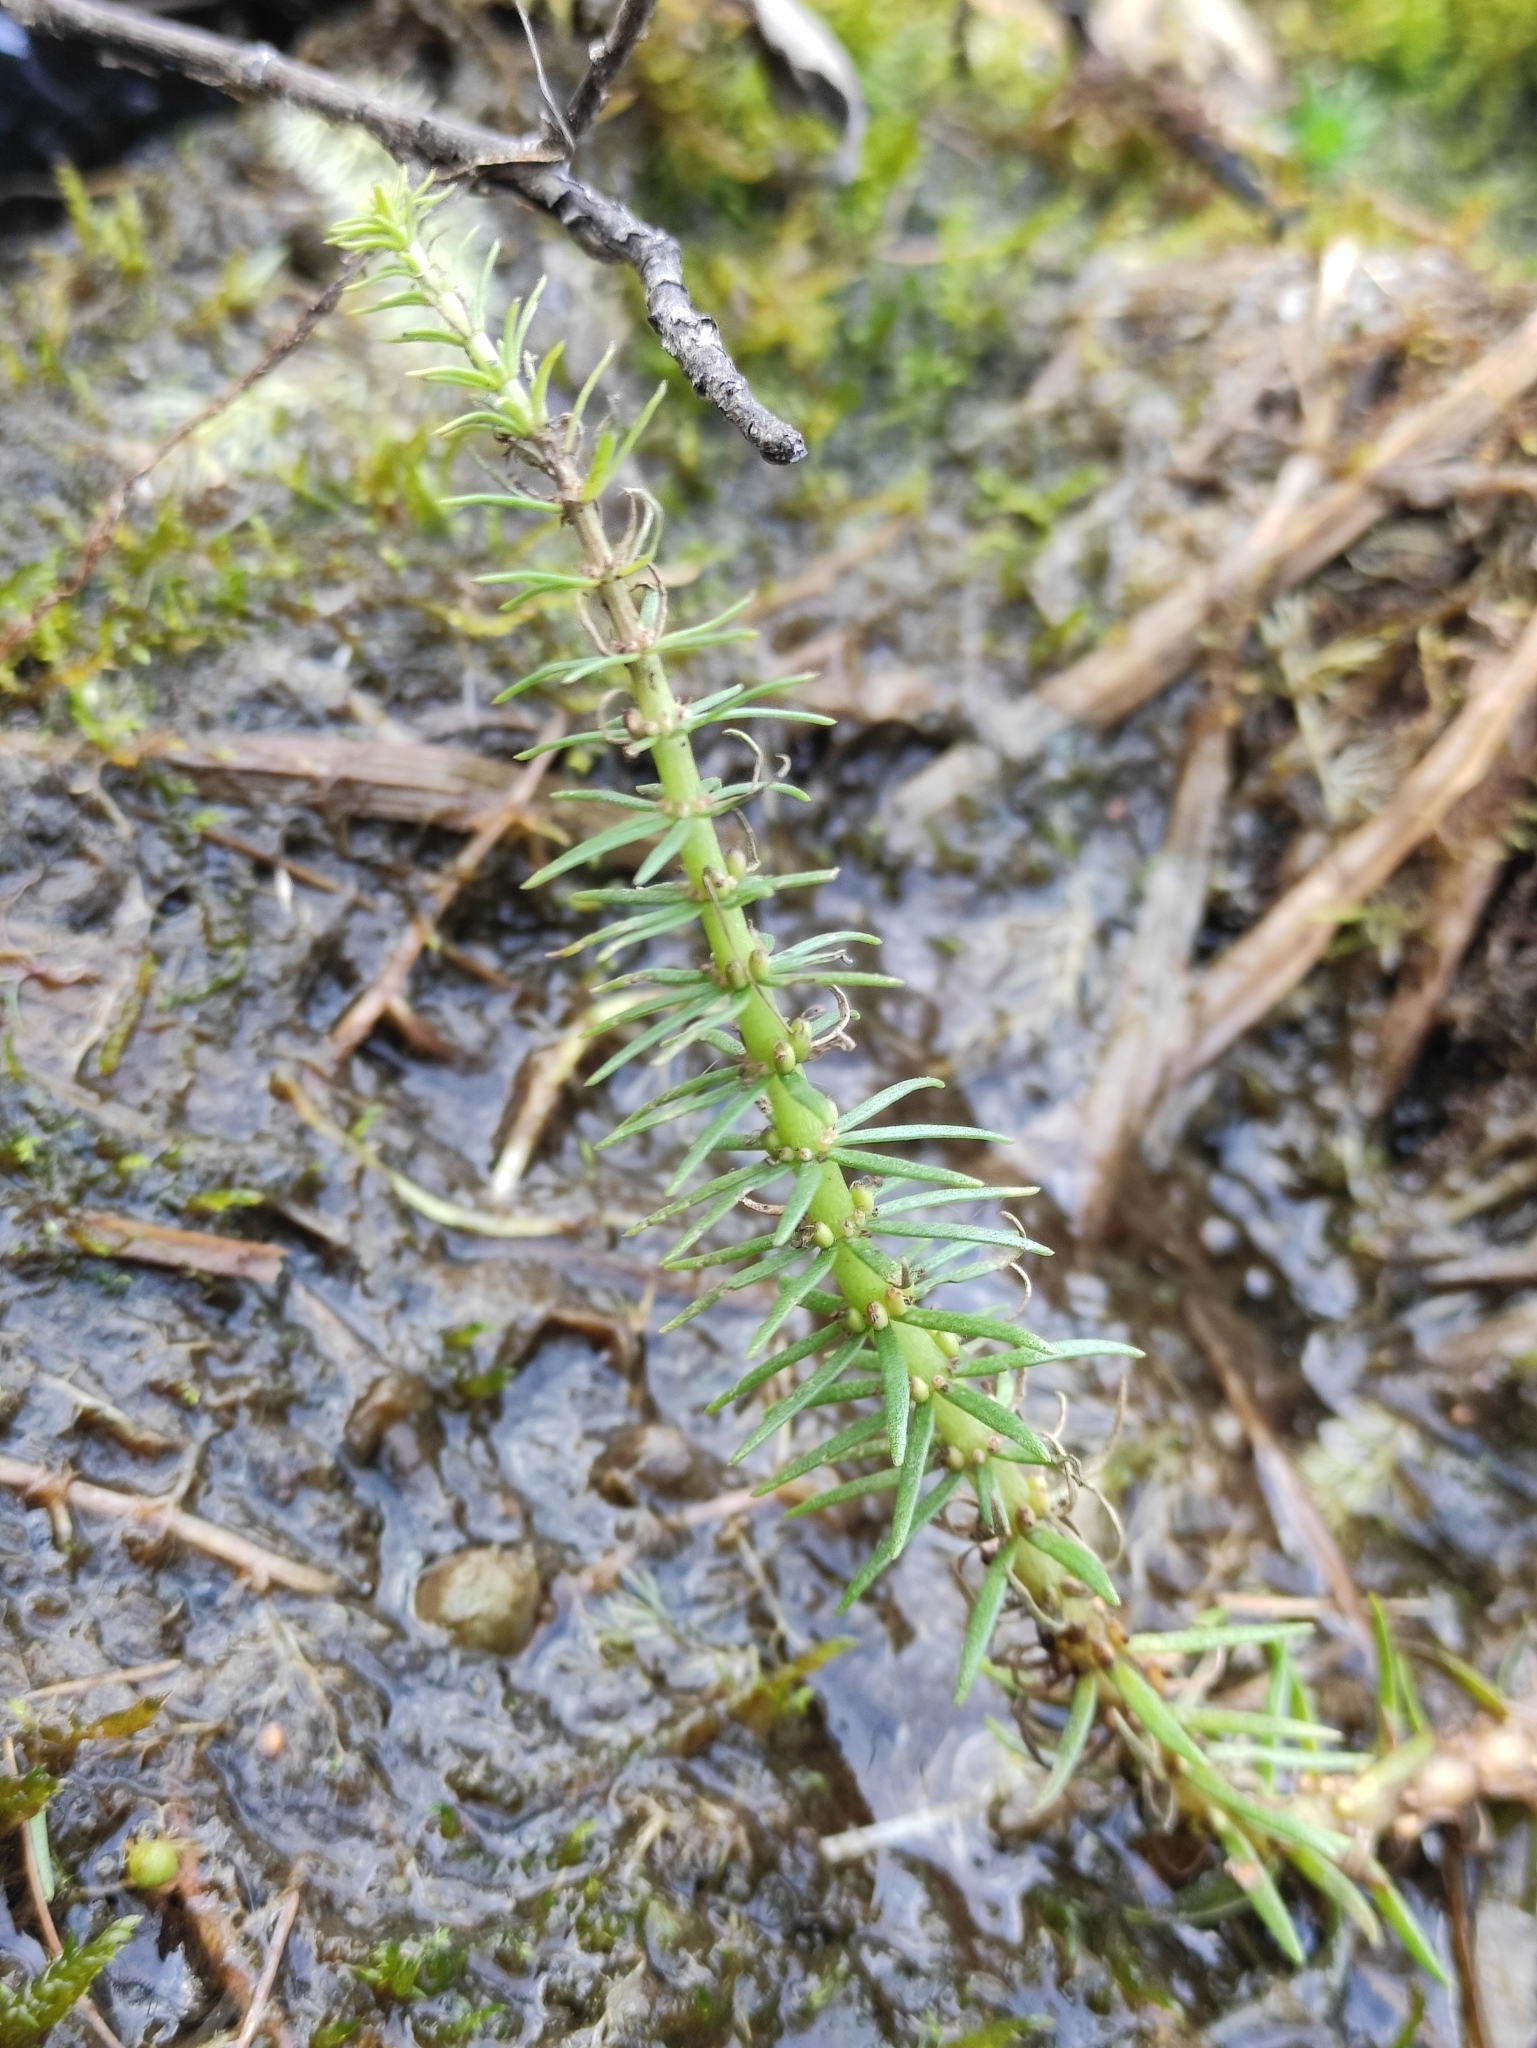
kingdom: Plantae
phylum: Tracheophyta
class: Magnoliopsida
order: Lamiales
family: Plantaginaceae
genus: Hippuris
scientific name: Hippuris vulgaris
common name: Mare's-tail
